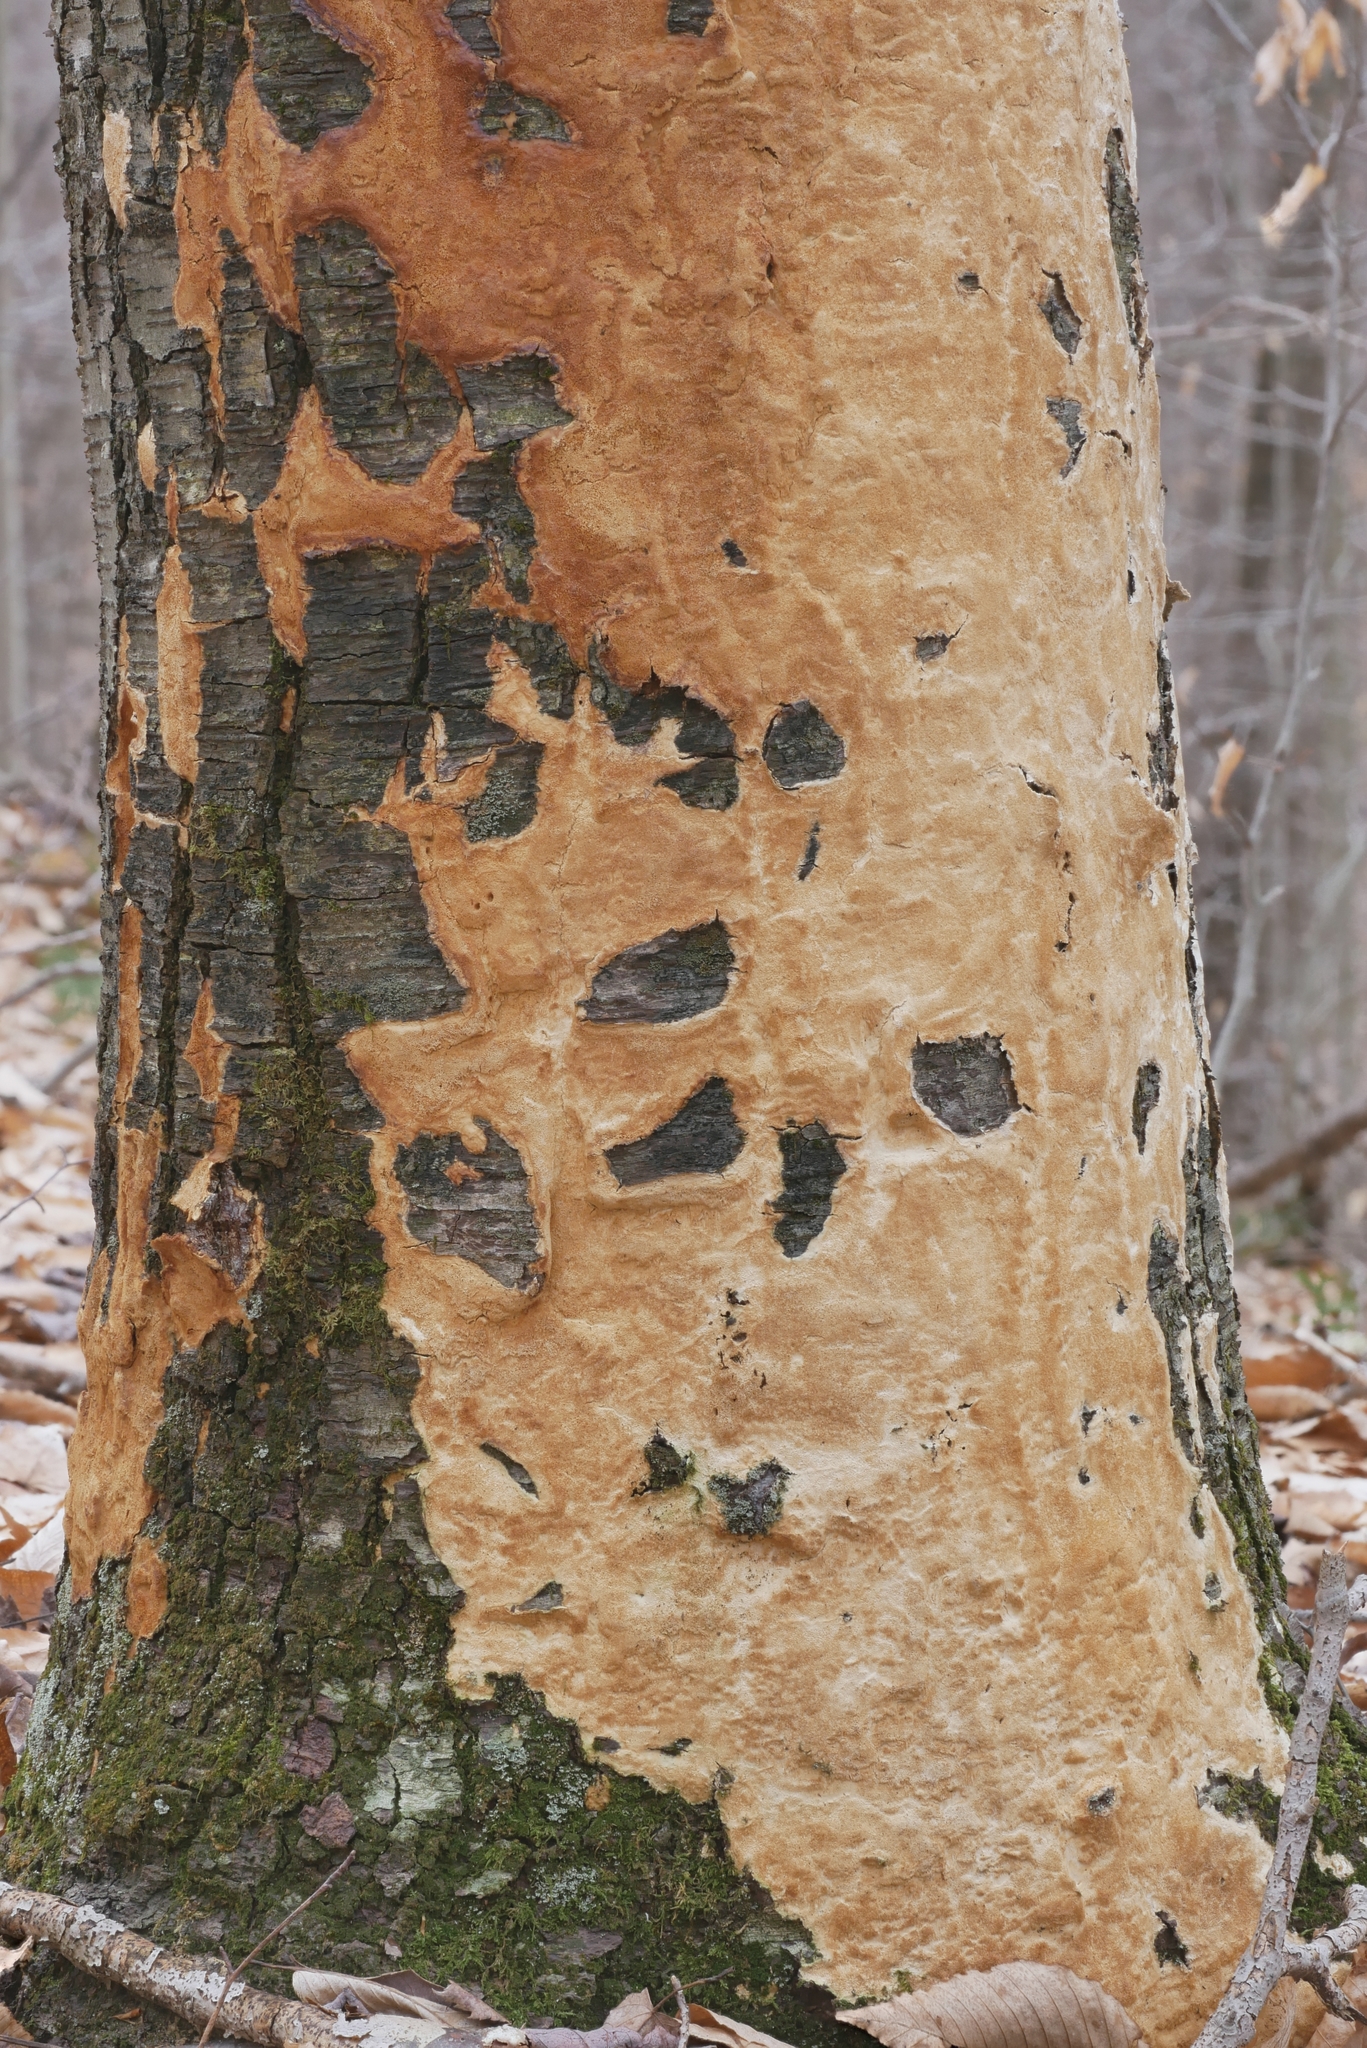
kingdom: Fungi
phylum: Basidiomycota
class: Agaricomycetes
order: Polyporales
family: Polyporaceae
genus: Poriella
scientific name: Poriella subacida
